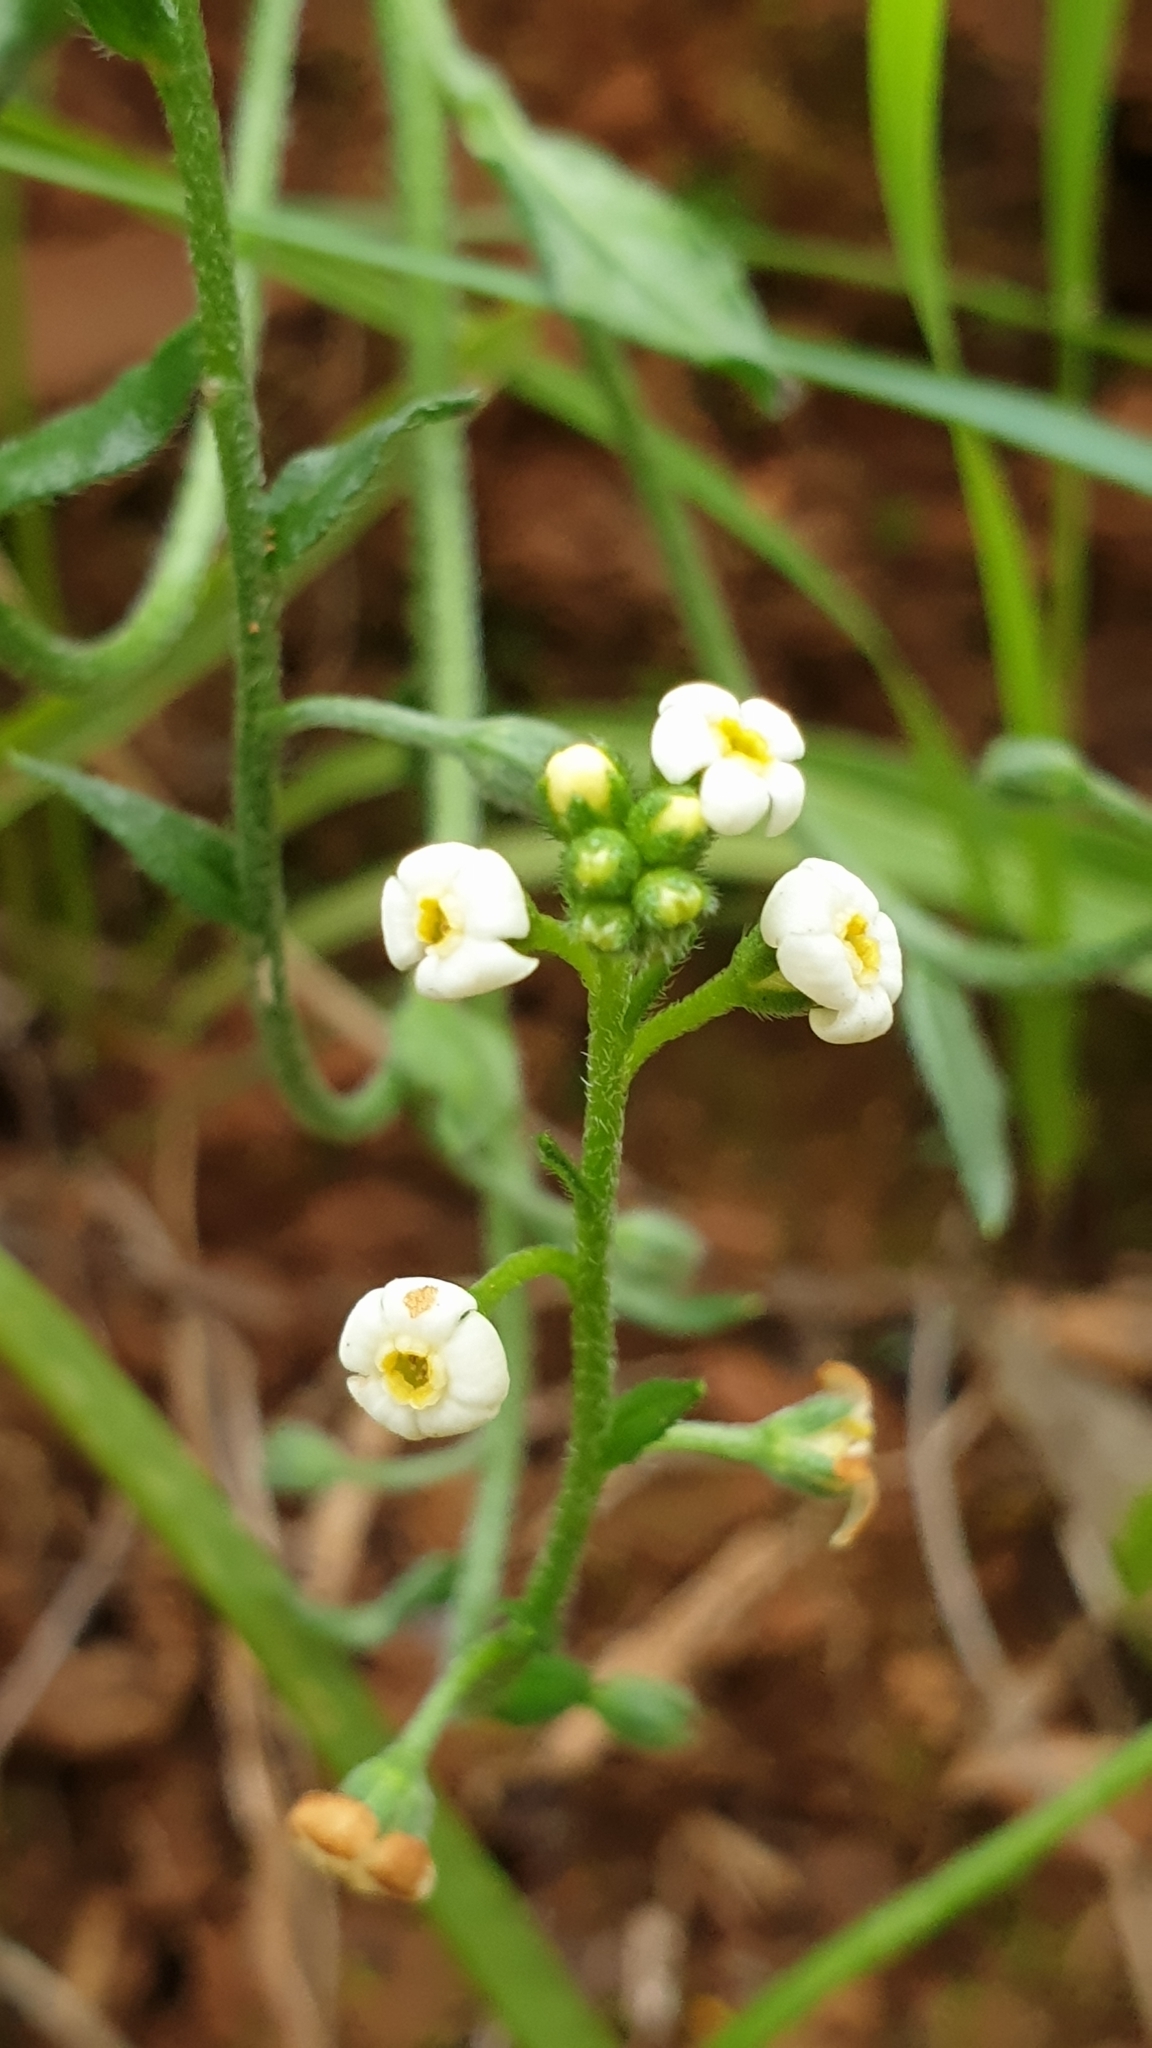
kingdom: Plantae
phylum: Tracheophyta
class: Magnoliopsida
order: Boraginales
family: Boraginaceae
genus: Hackelia
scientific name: Hackelia suaveolens
